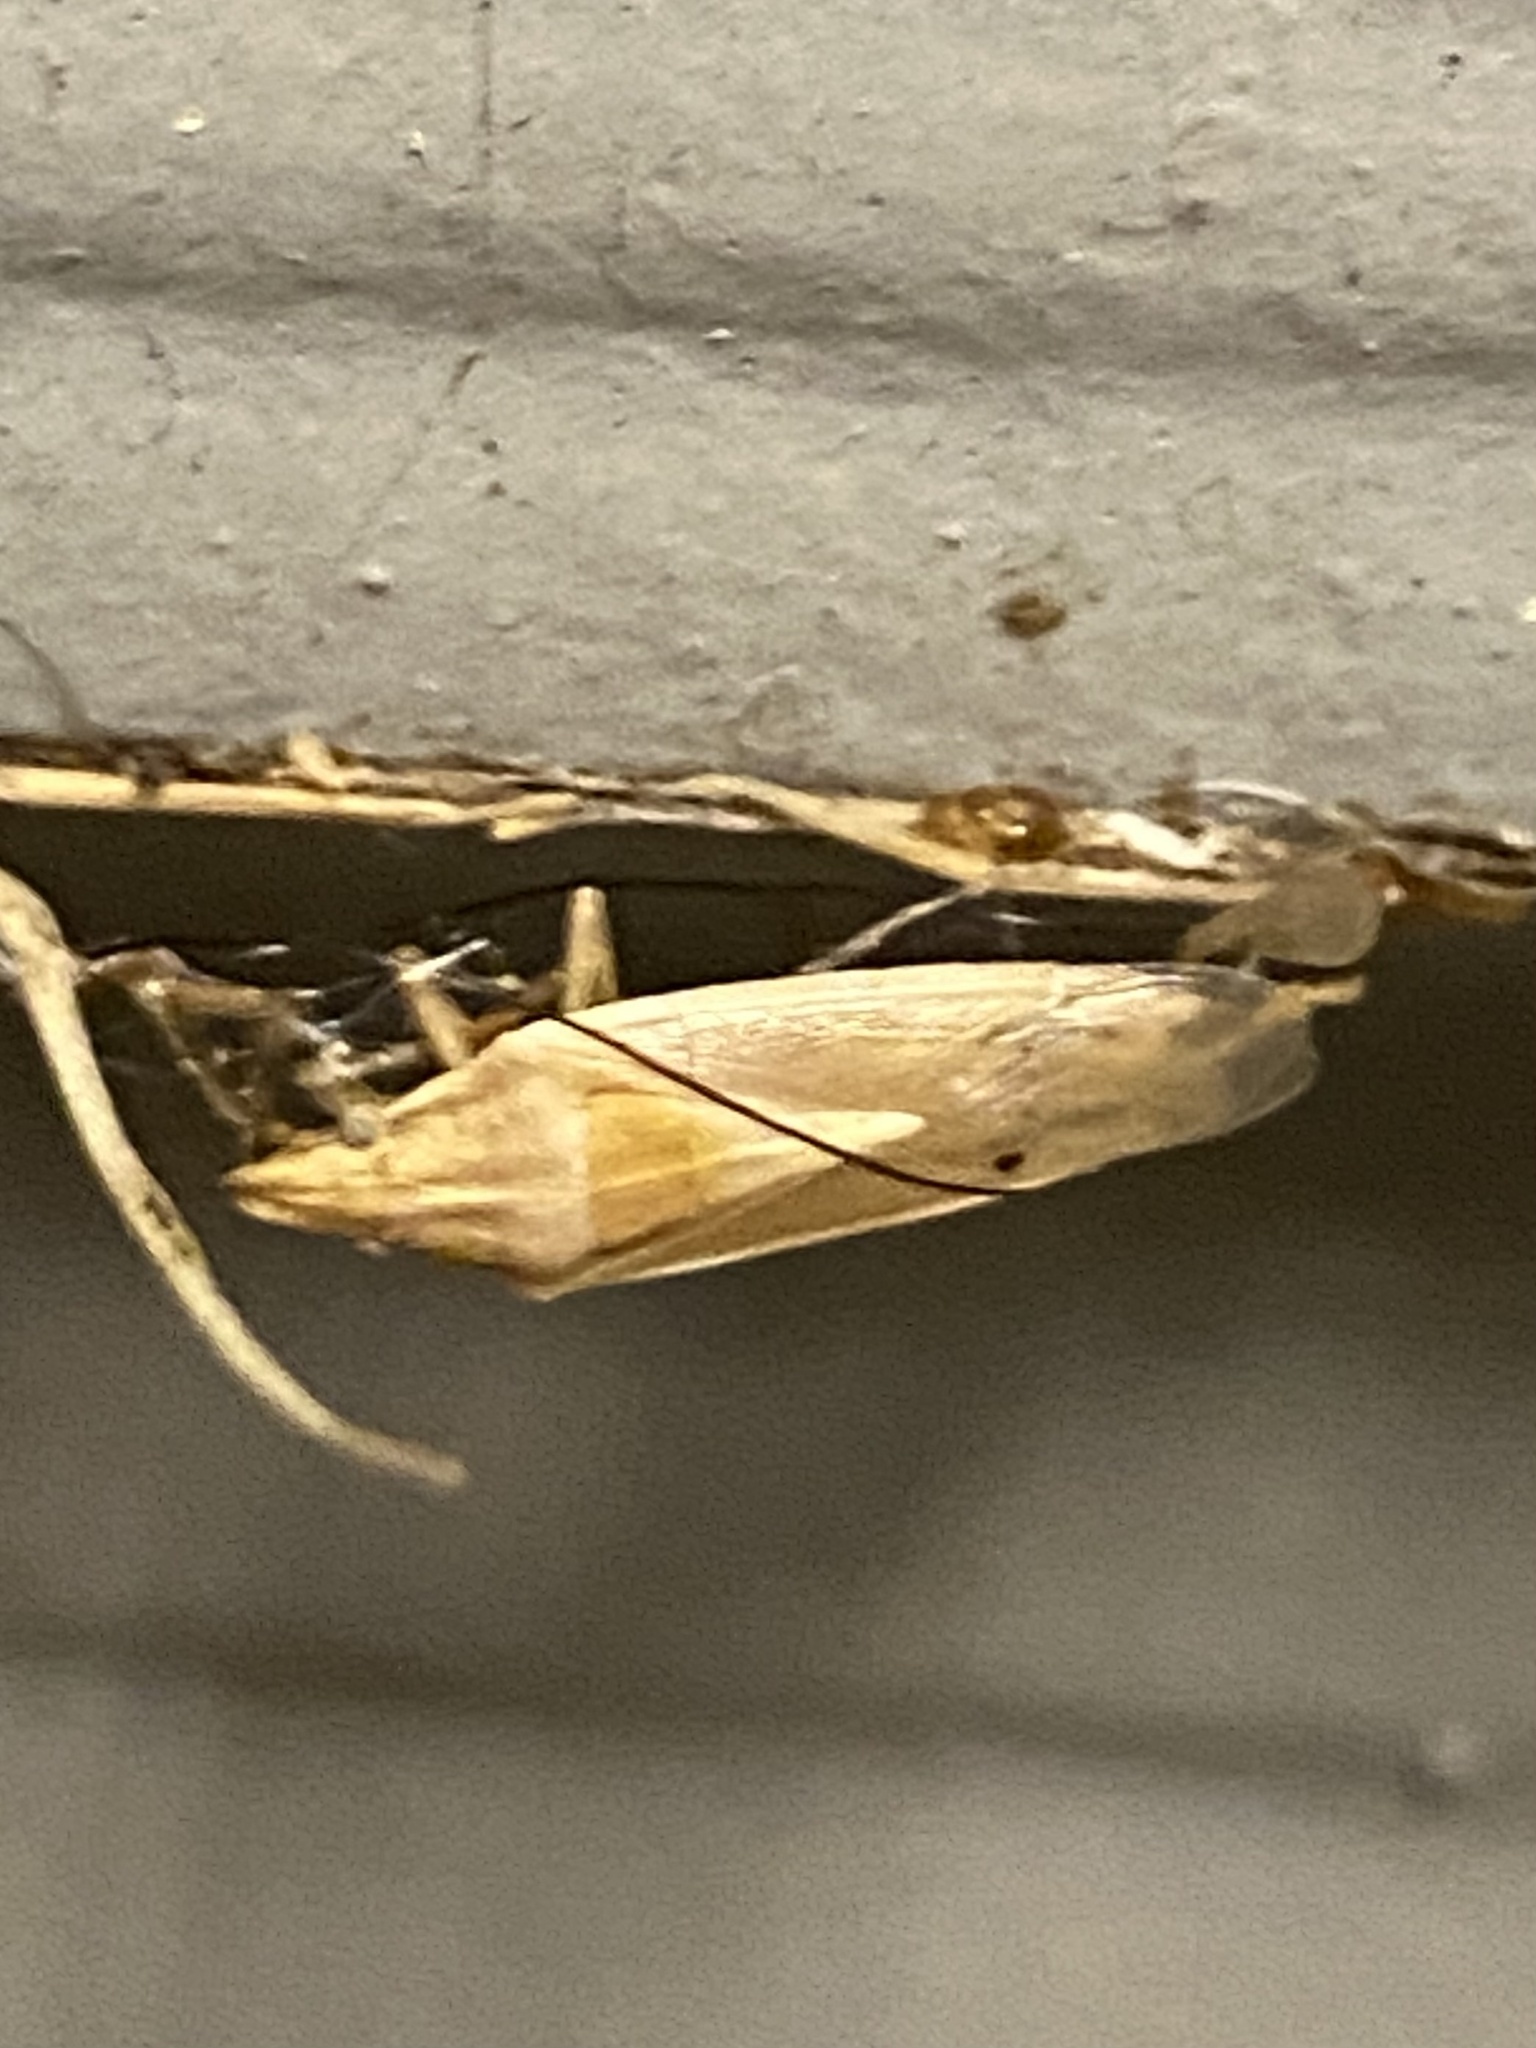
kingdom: Animalia
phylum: Arthropoda
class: Insecta
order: Hemiptera
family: Pentatomidae
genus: Mecidea
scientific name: Mecidea
